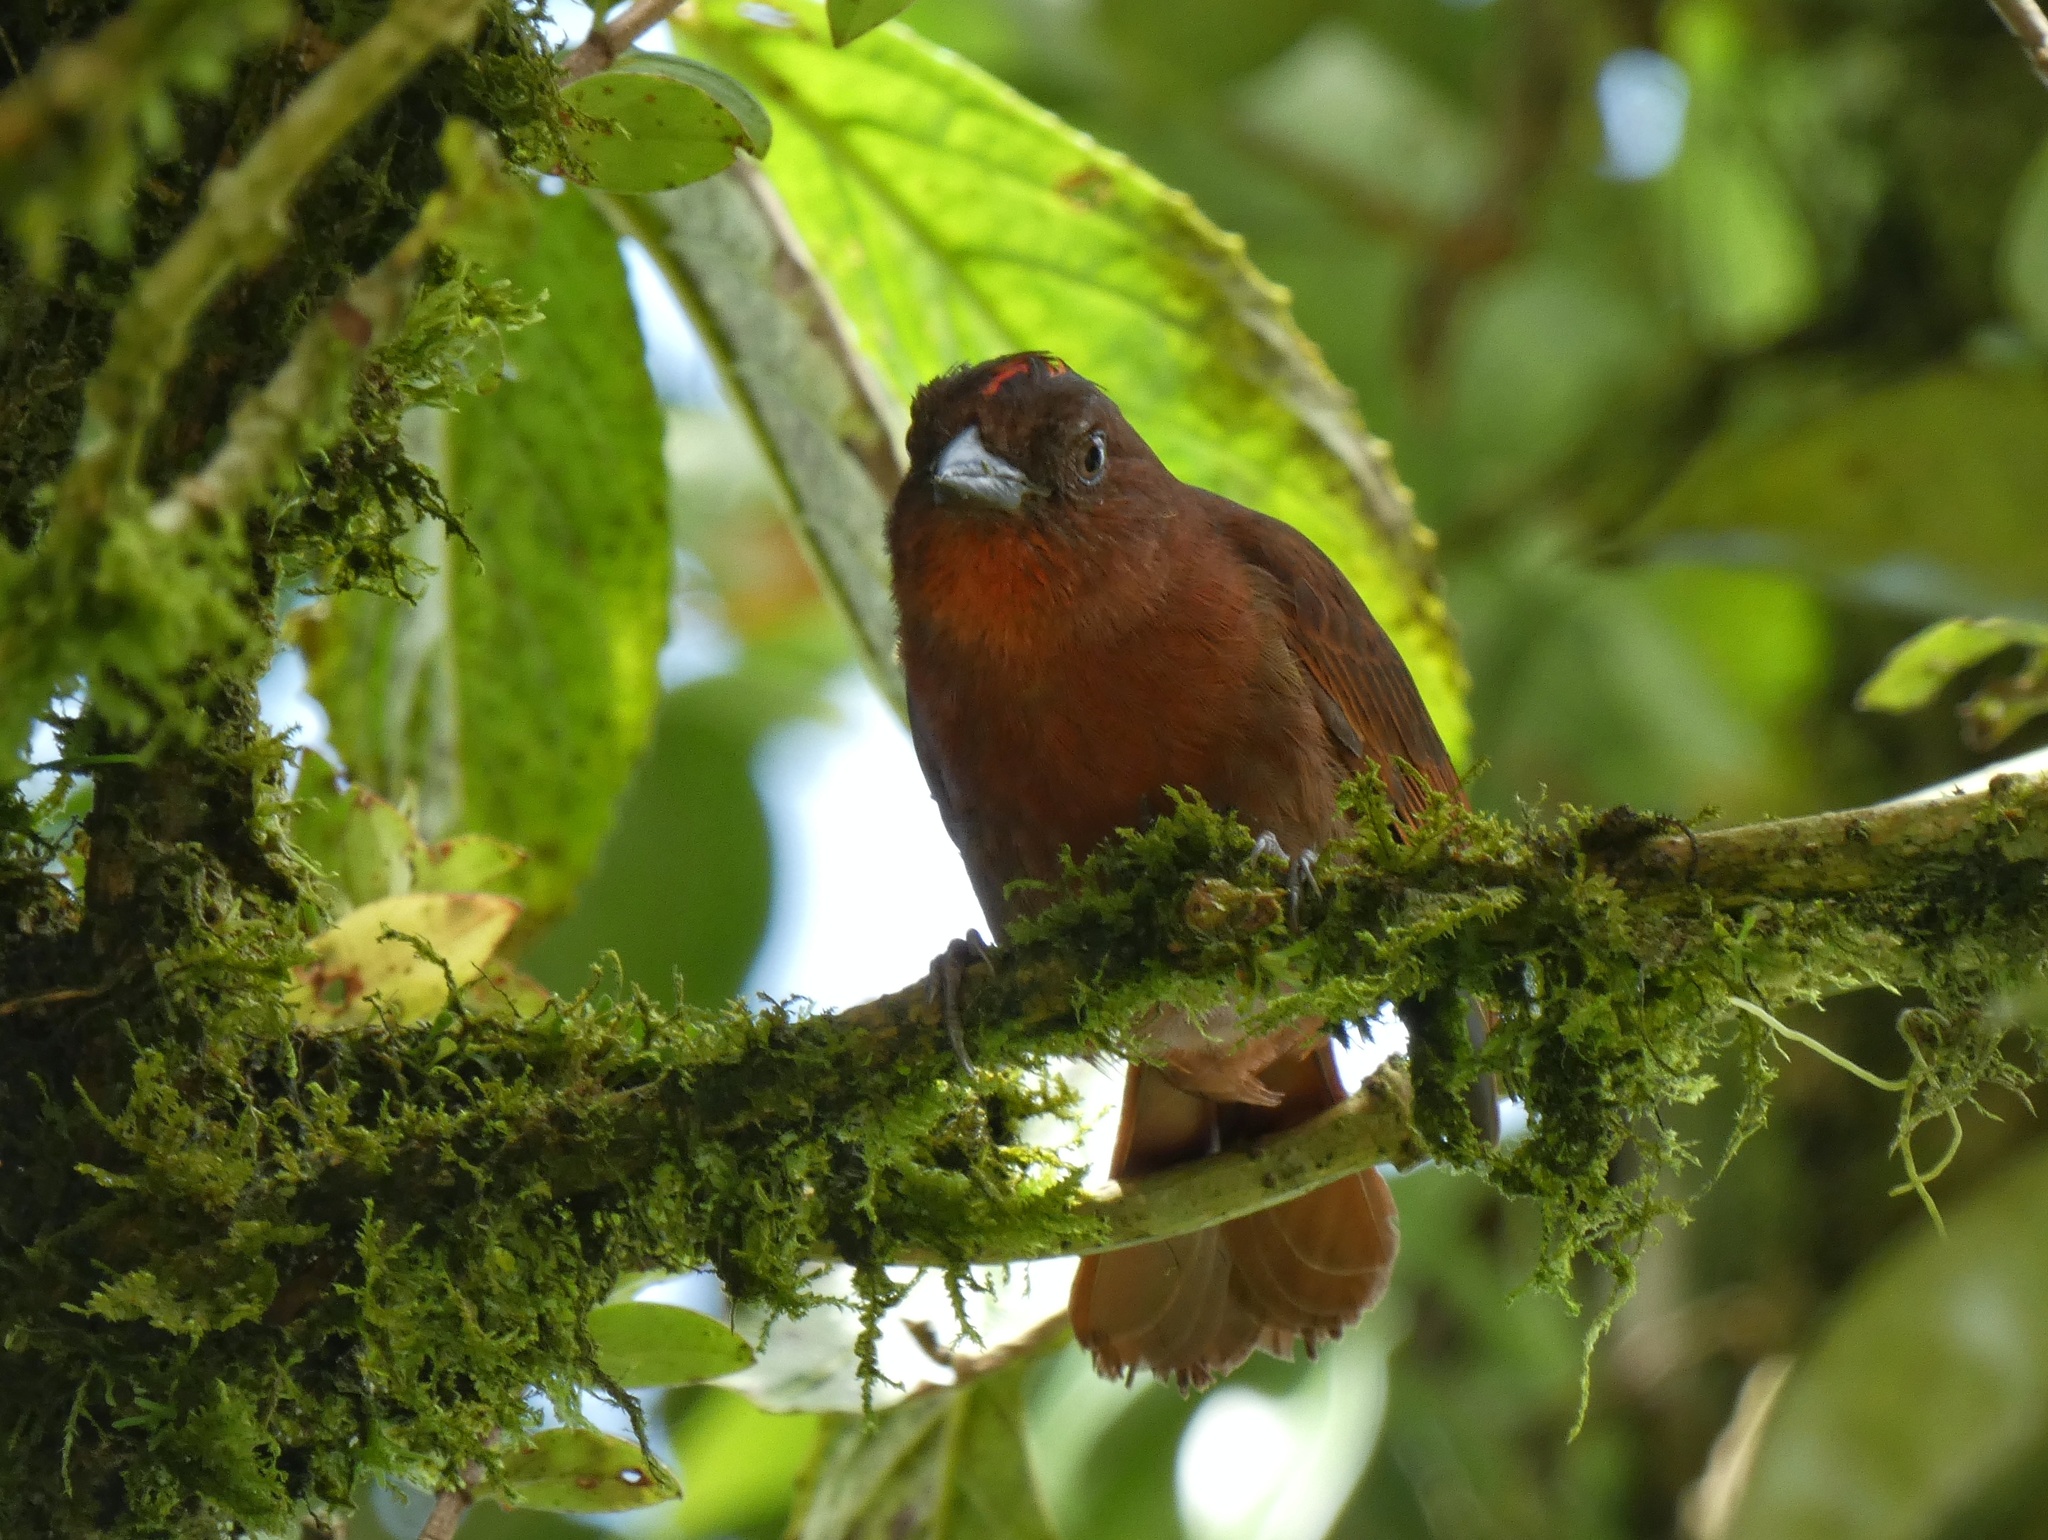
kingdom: Animalia
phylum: Chordata
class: Aves
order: Passeriformes
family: Cardinalidae
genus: Habia
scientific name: Habia rubica
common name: Red-crowned ant-tanager
